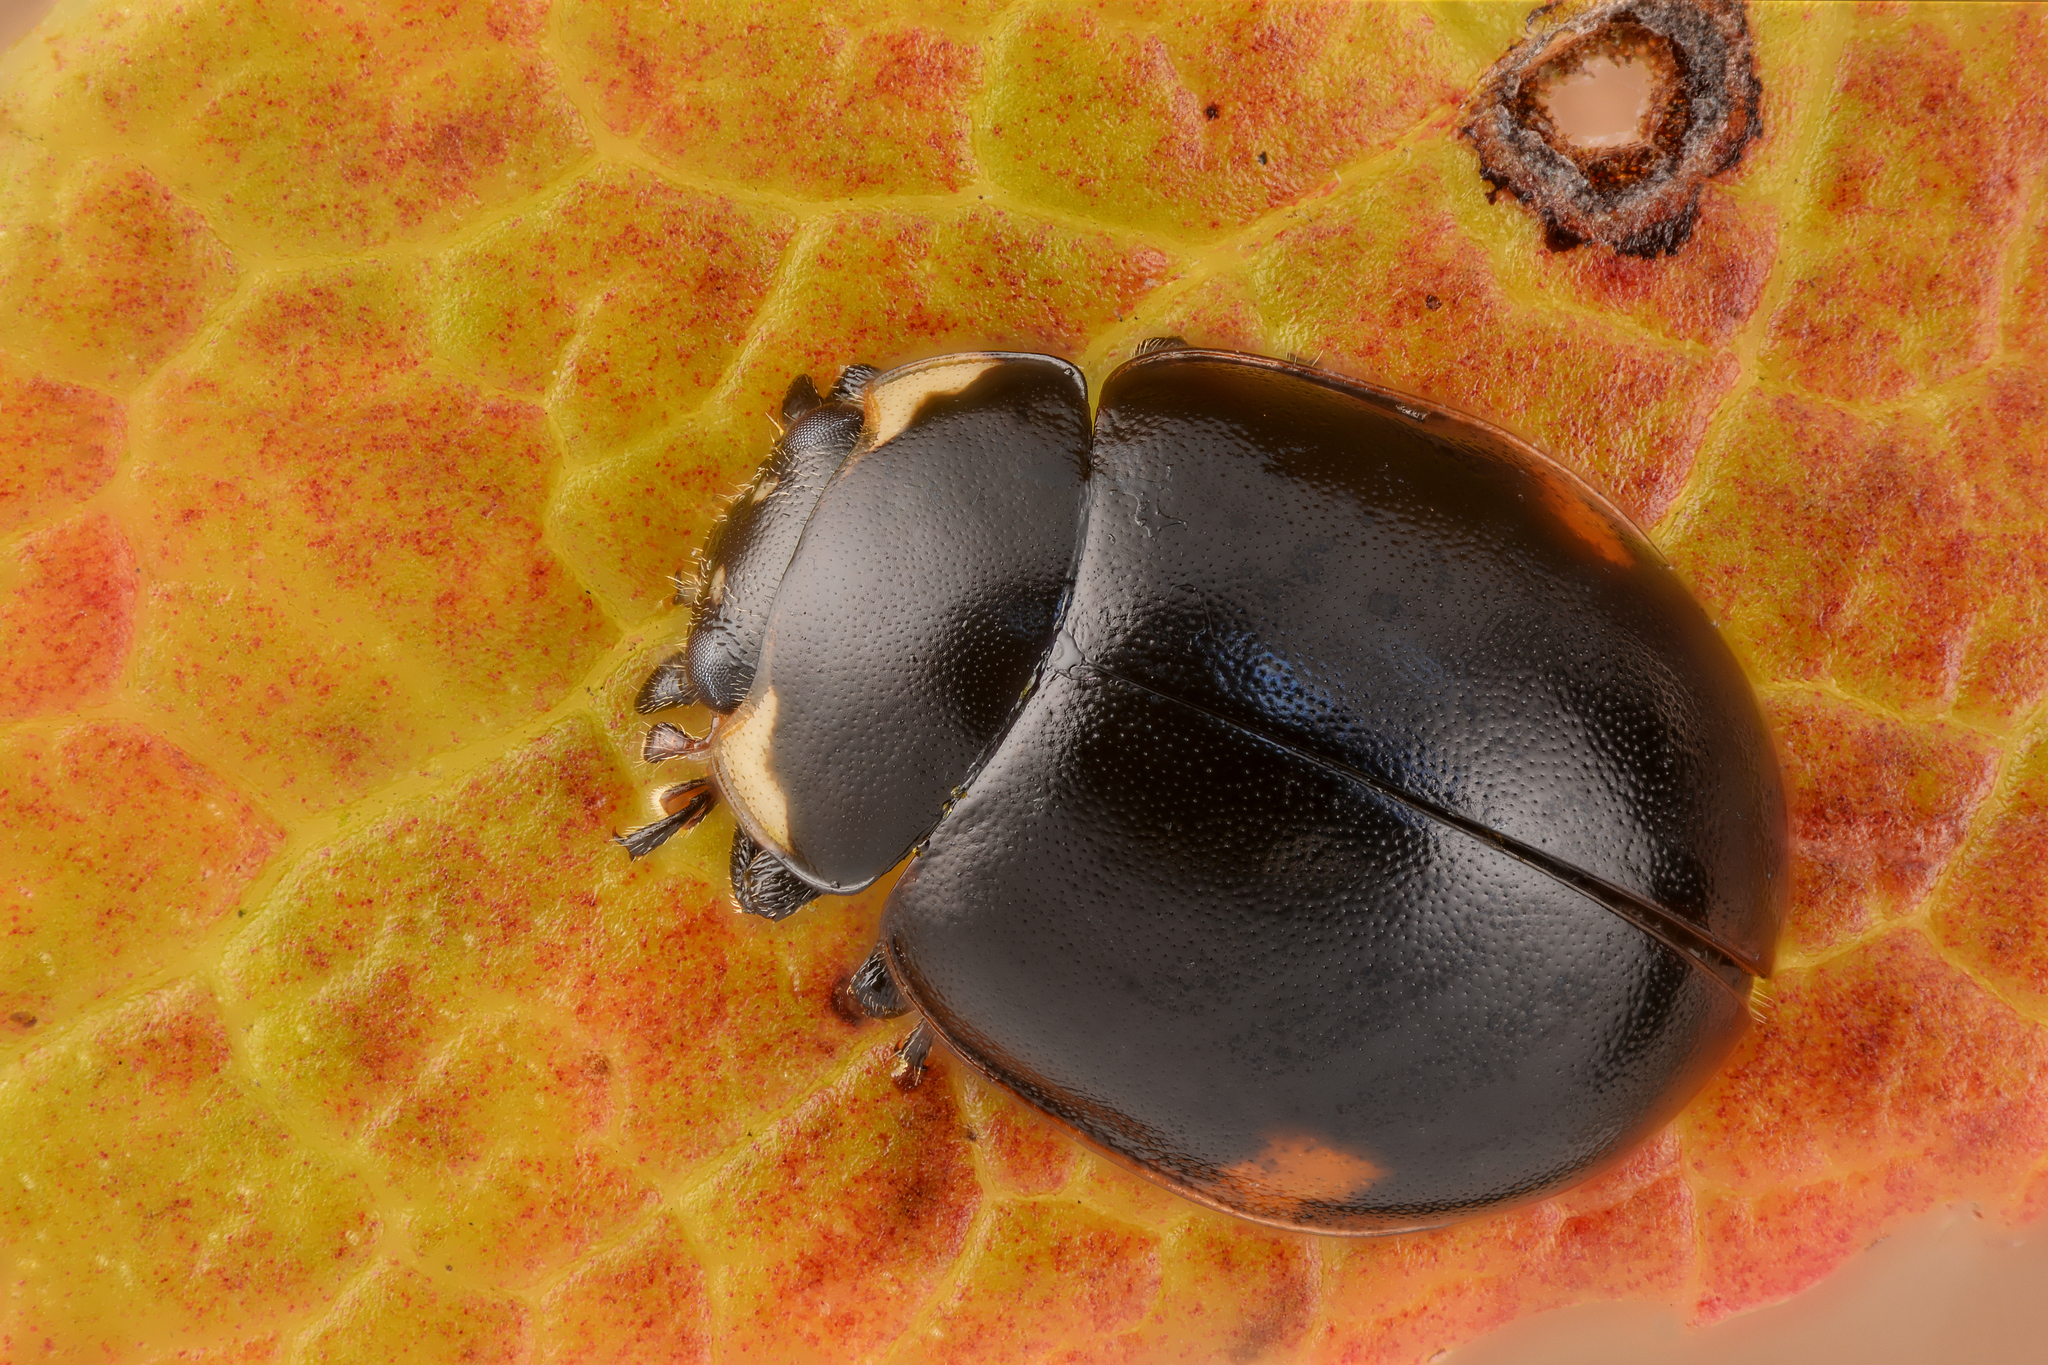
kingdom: Animalia
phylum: Arthropoda
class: Insecta
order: Coleoptera
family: Coccinellidae
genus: Coccinella
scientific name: Coccinella hieroglyphica
